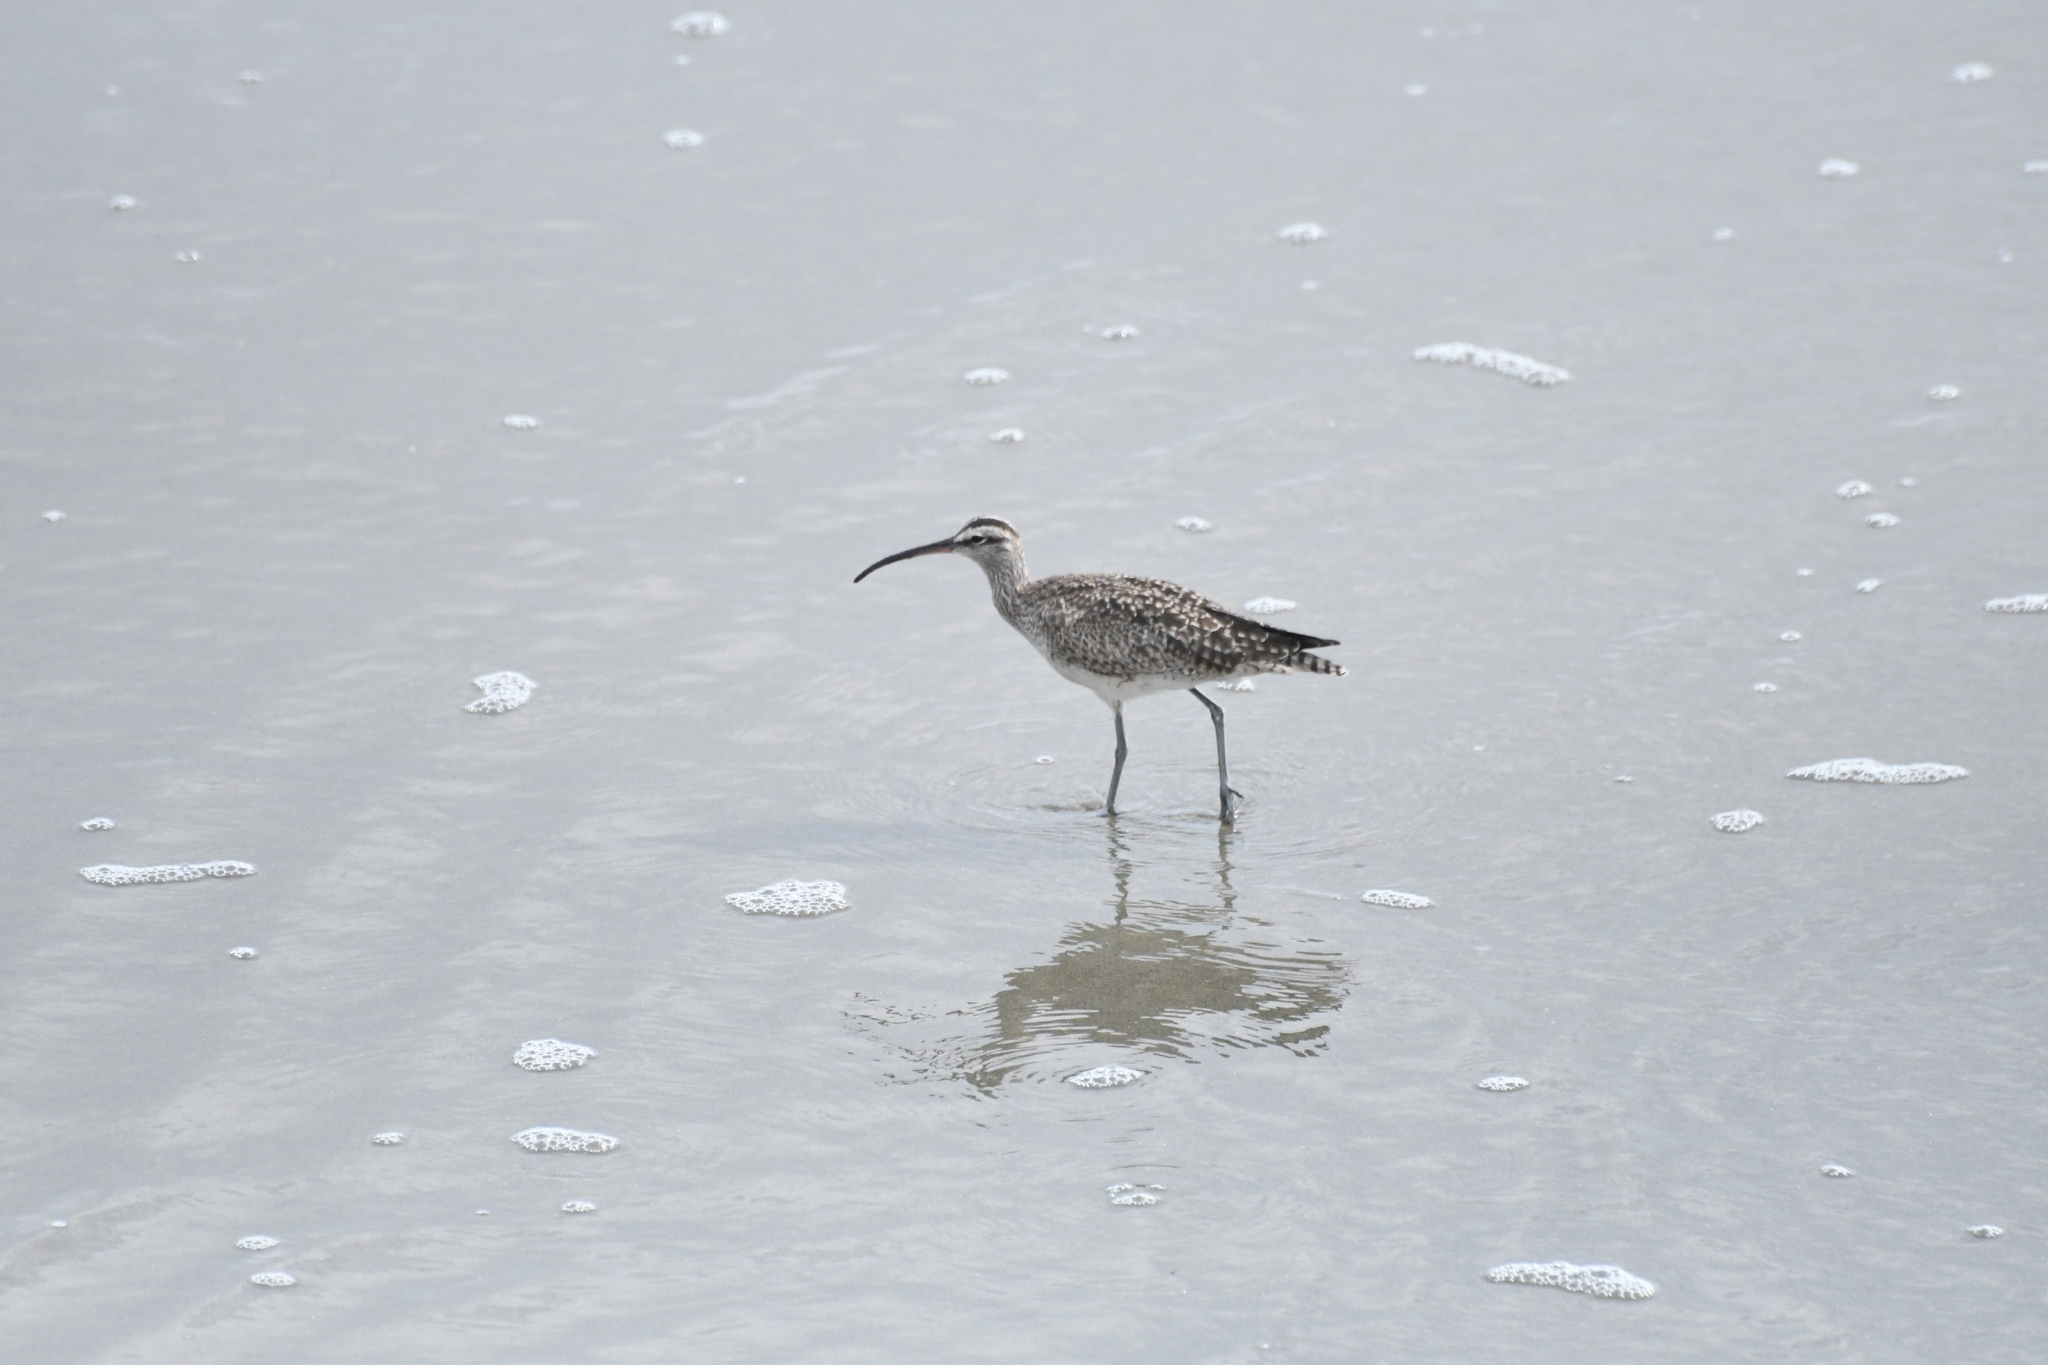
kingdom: Animalia
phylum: Chordata
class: Aves
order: Charadriiformes
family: Scolopacidae
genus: Numenius
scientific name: Numenius hudsonicus
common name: Hudsonian whimbrel
